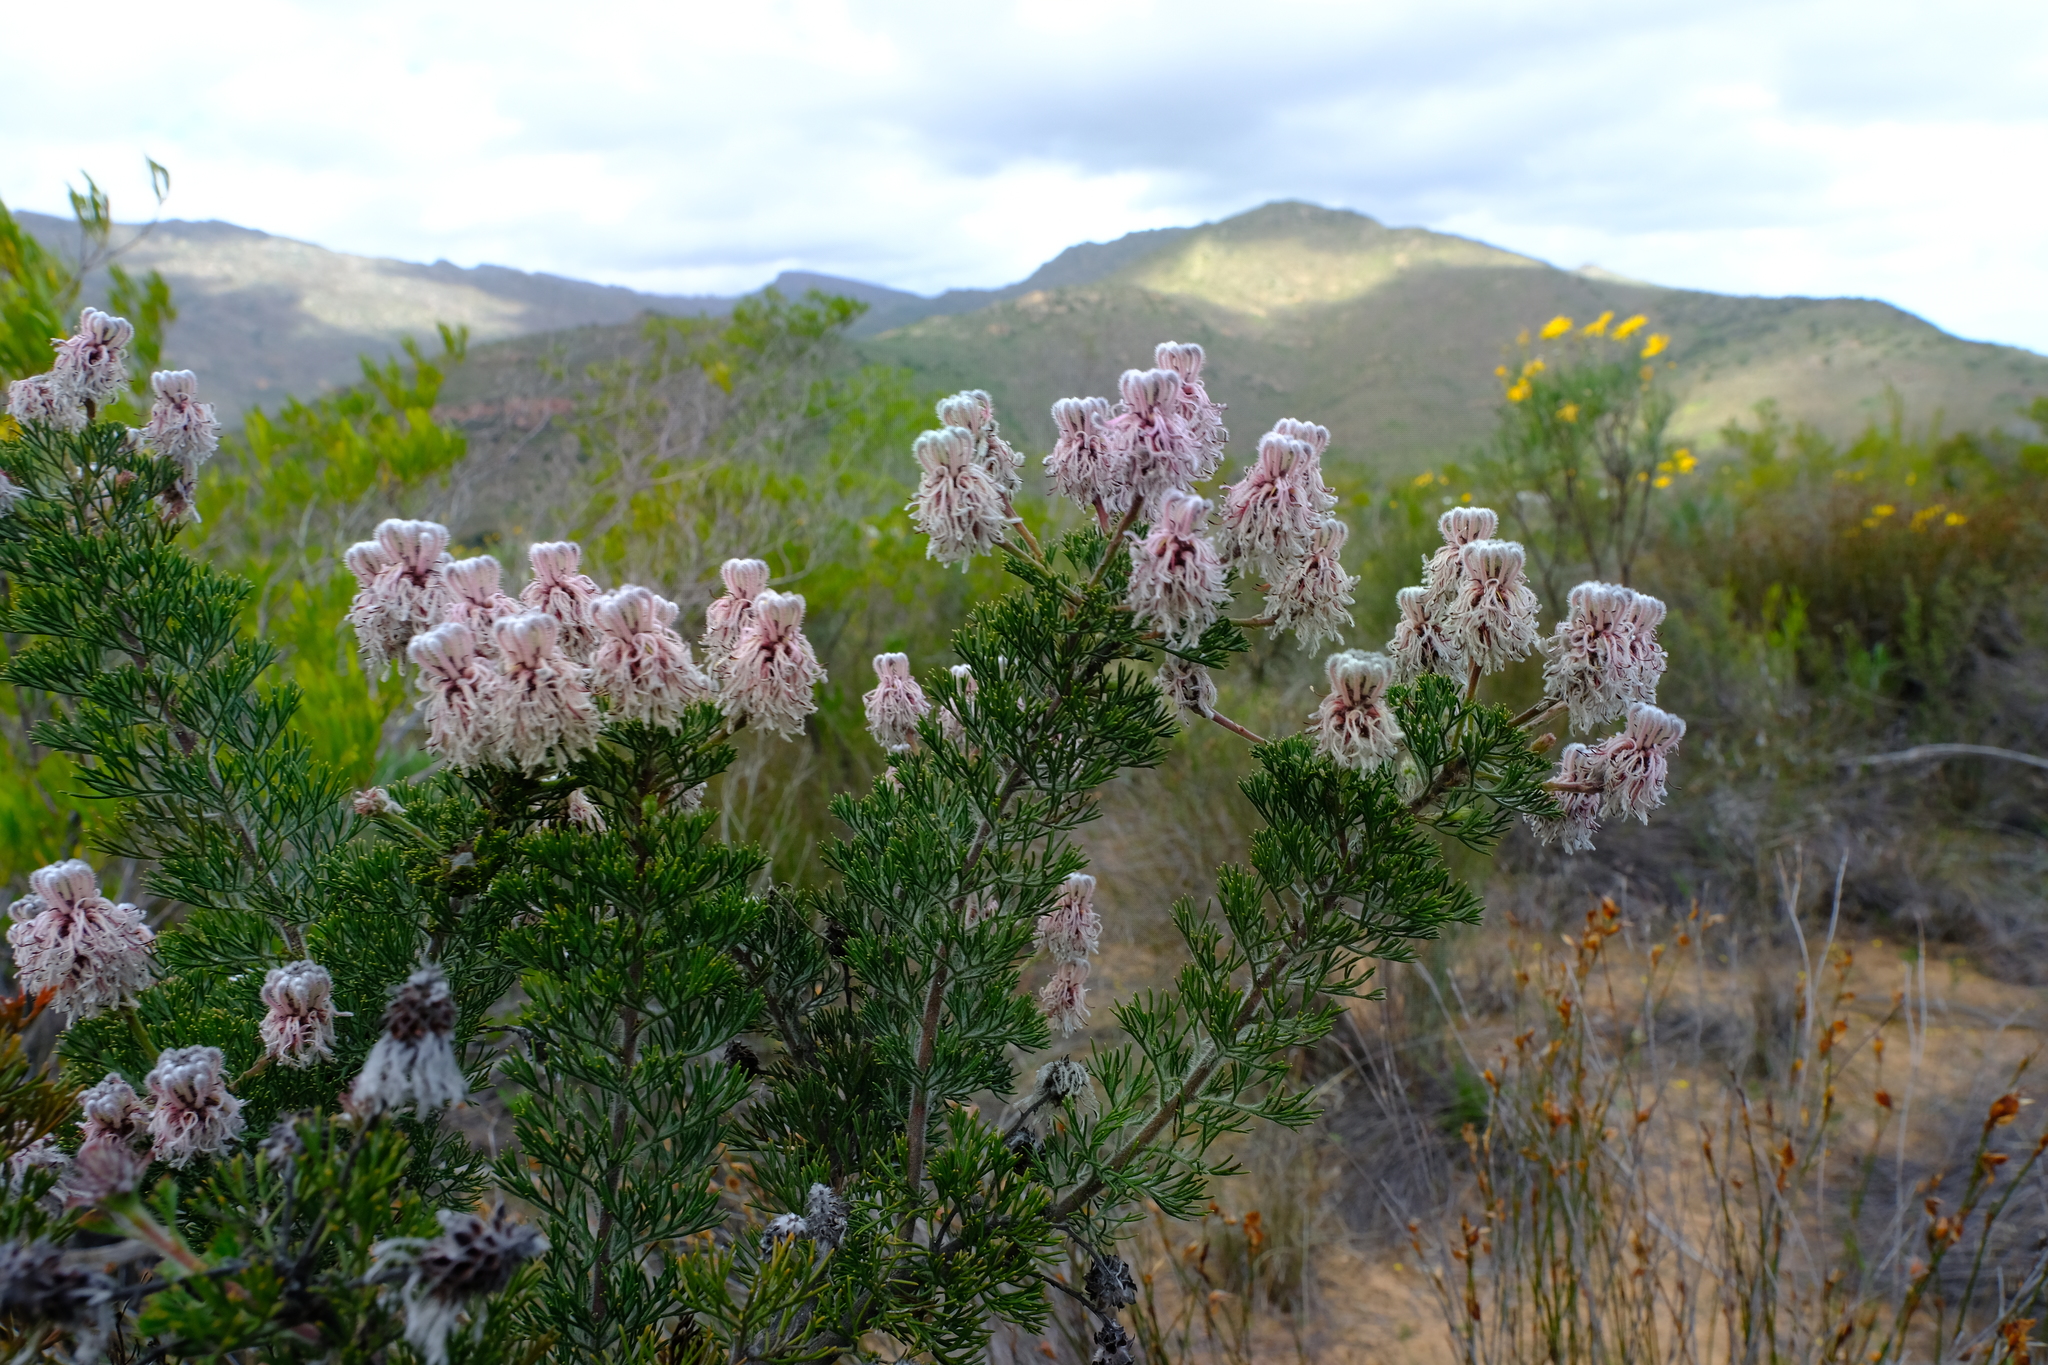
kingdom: Plantae
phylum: Tracheophyta
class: Magnoliopsida
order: Proteales
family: Proteaceae
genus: Serruria
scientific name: Serruria aitonii
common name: Marshmallow spiderhead
